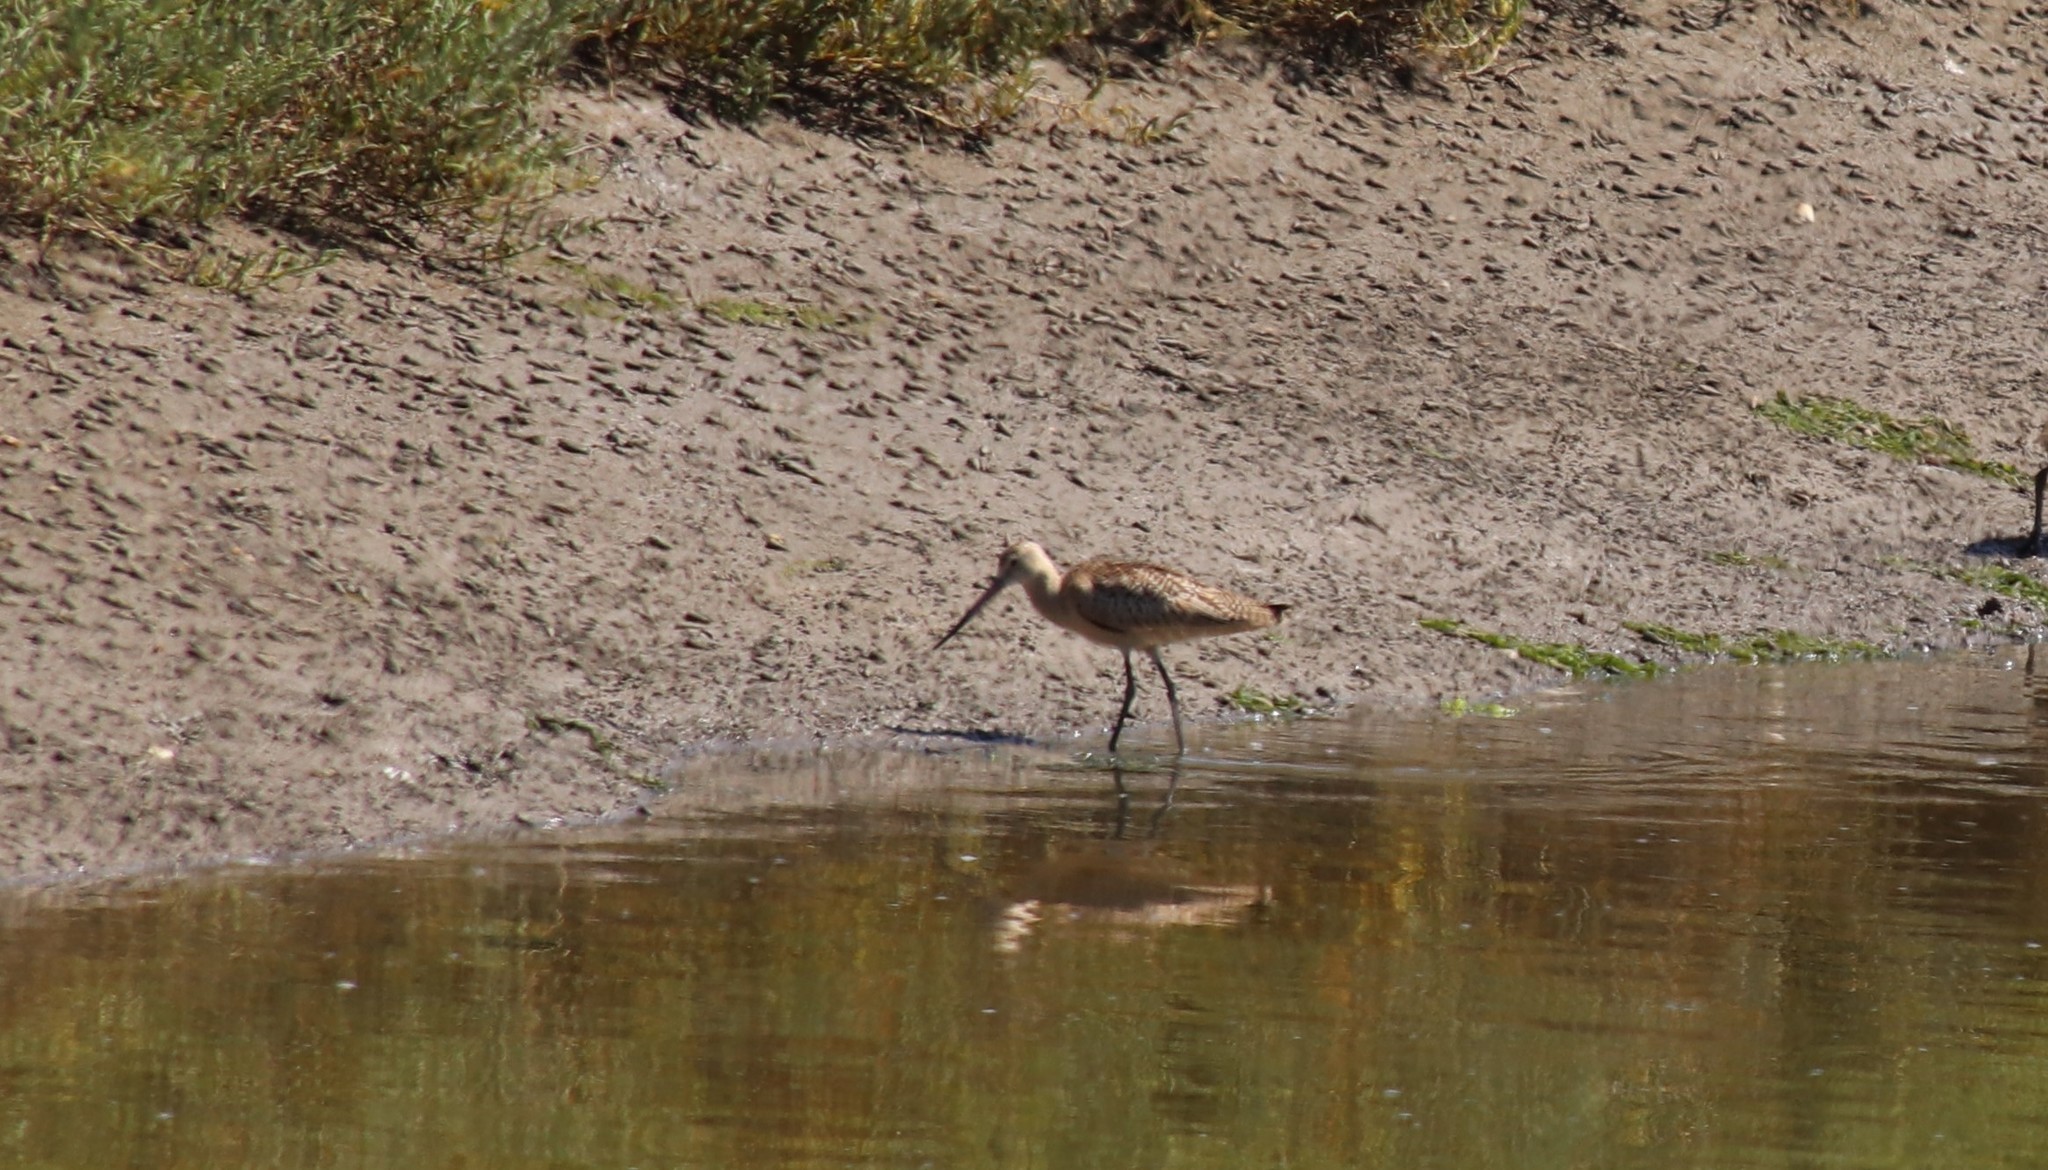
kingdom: Animalia
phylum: Chordata
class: Aves
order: Charadriiformes
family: Scolopacidae
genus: Limosa
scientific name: Limosa fedoa
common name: Marbled godwit
